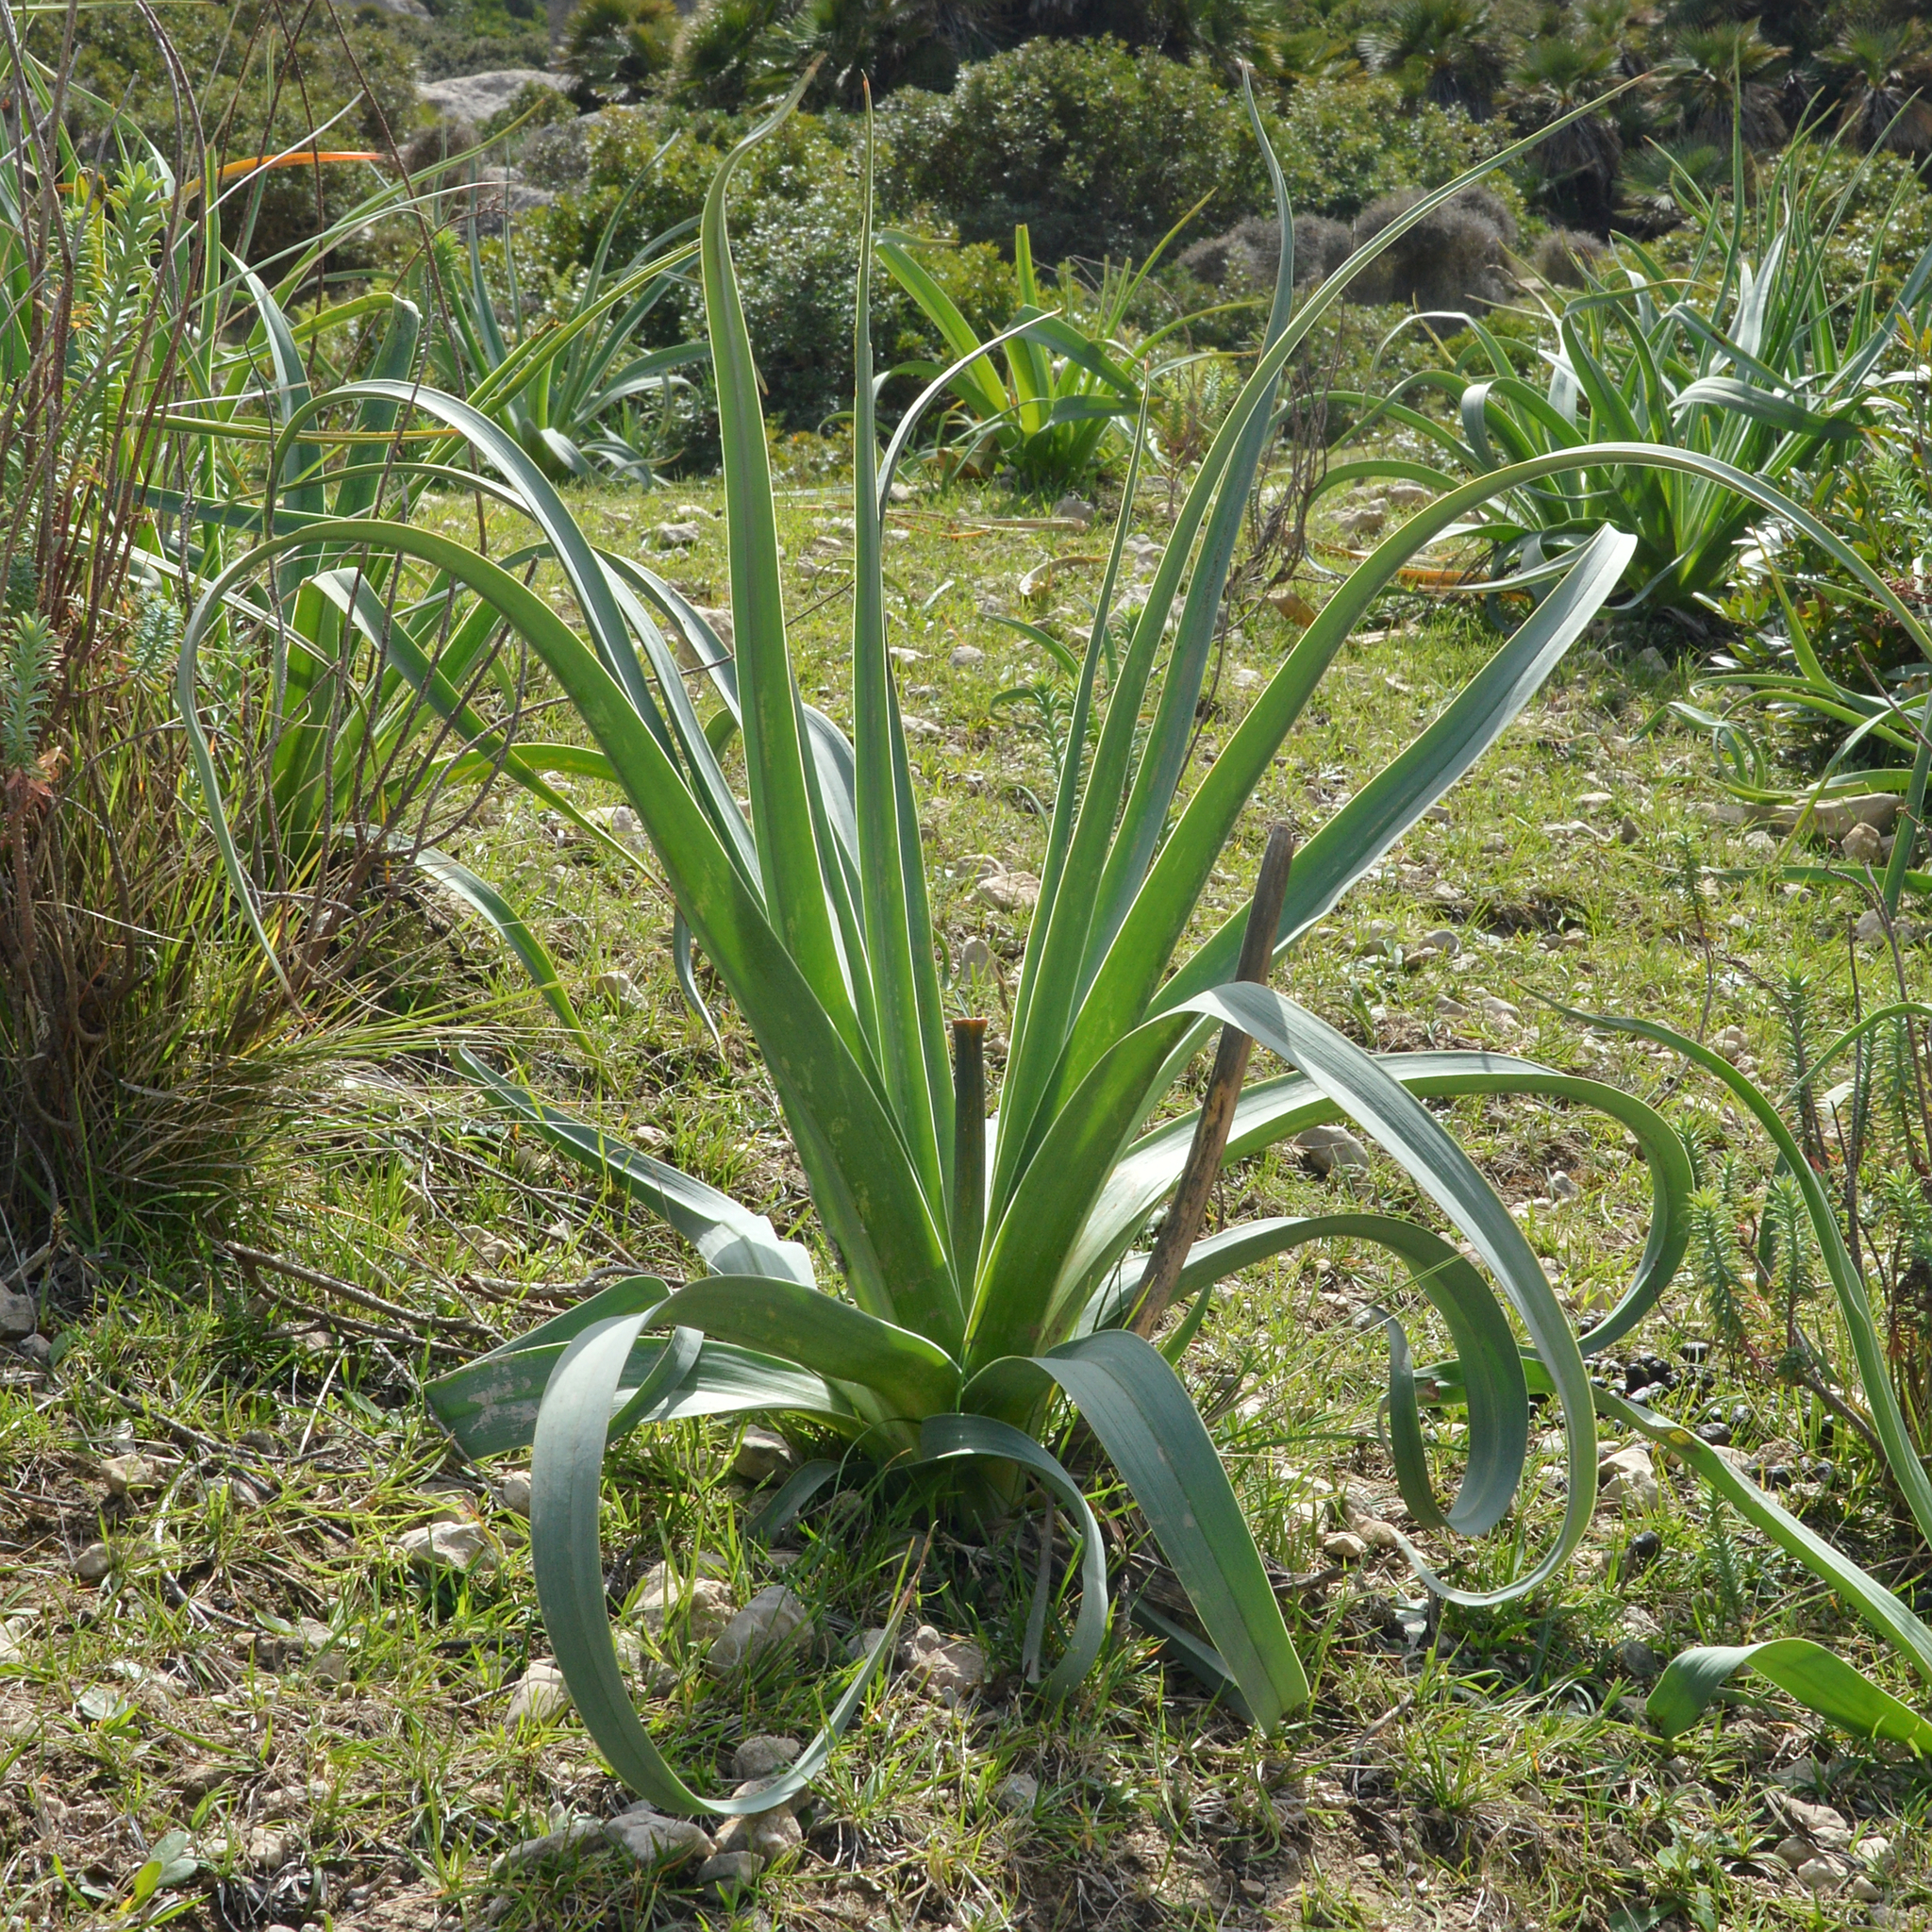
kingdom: Plantae
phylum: Tracheophyta
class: Liliopsida
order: Asparagales
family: Asphodelaceae
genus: Asphodelus
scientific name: Asphodelus ramosus
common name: Silverrod
